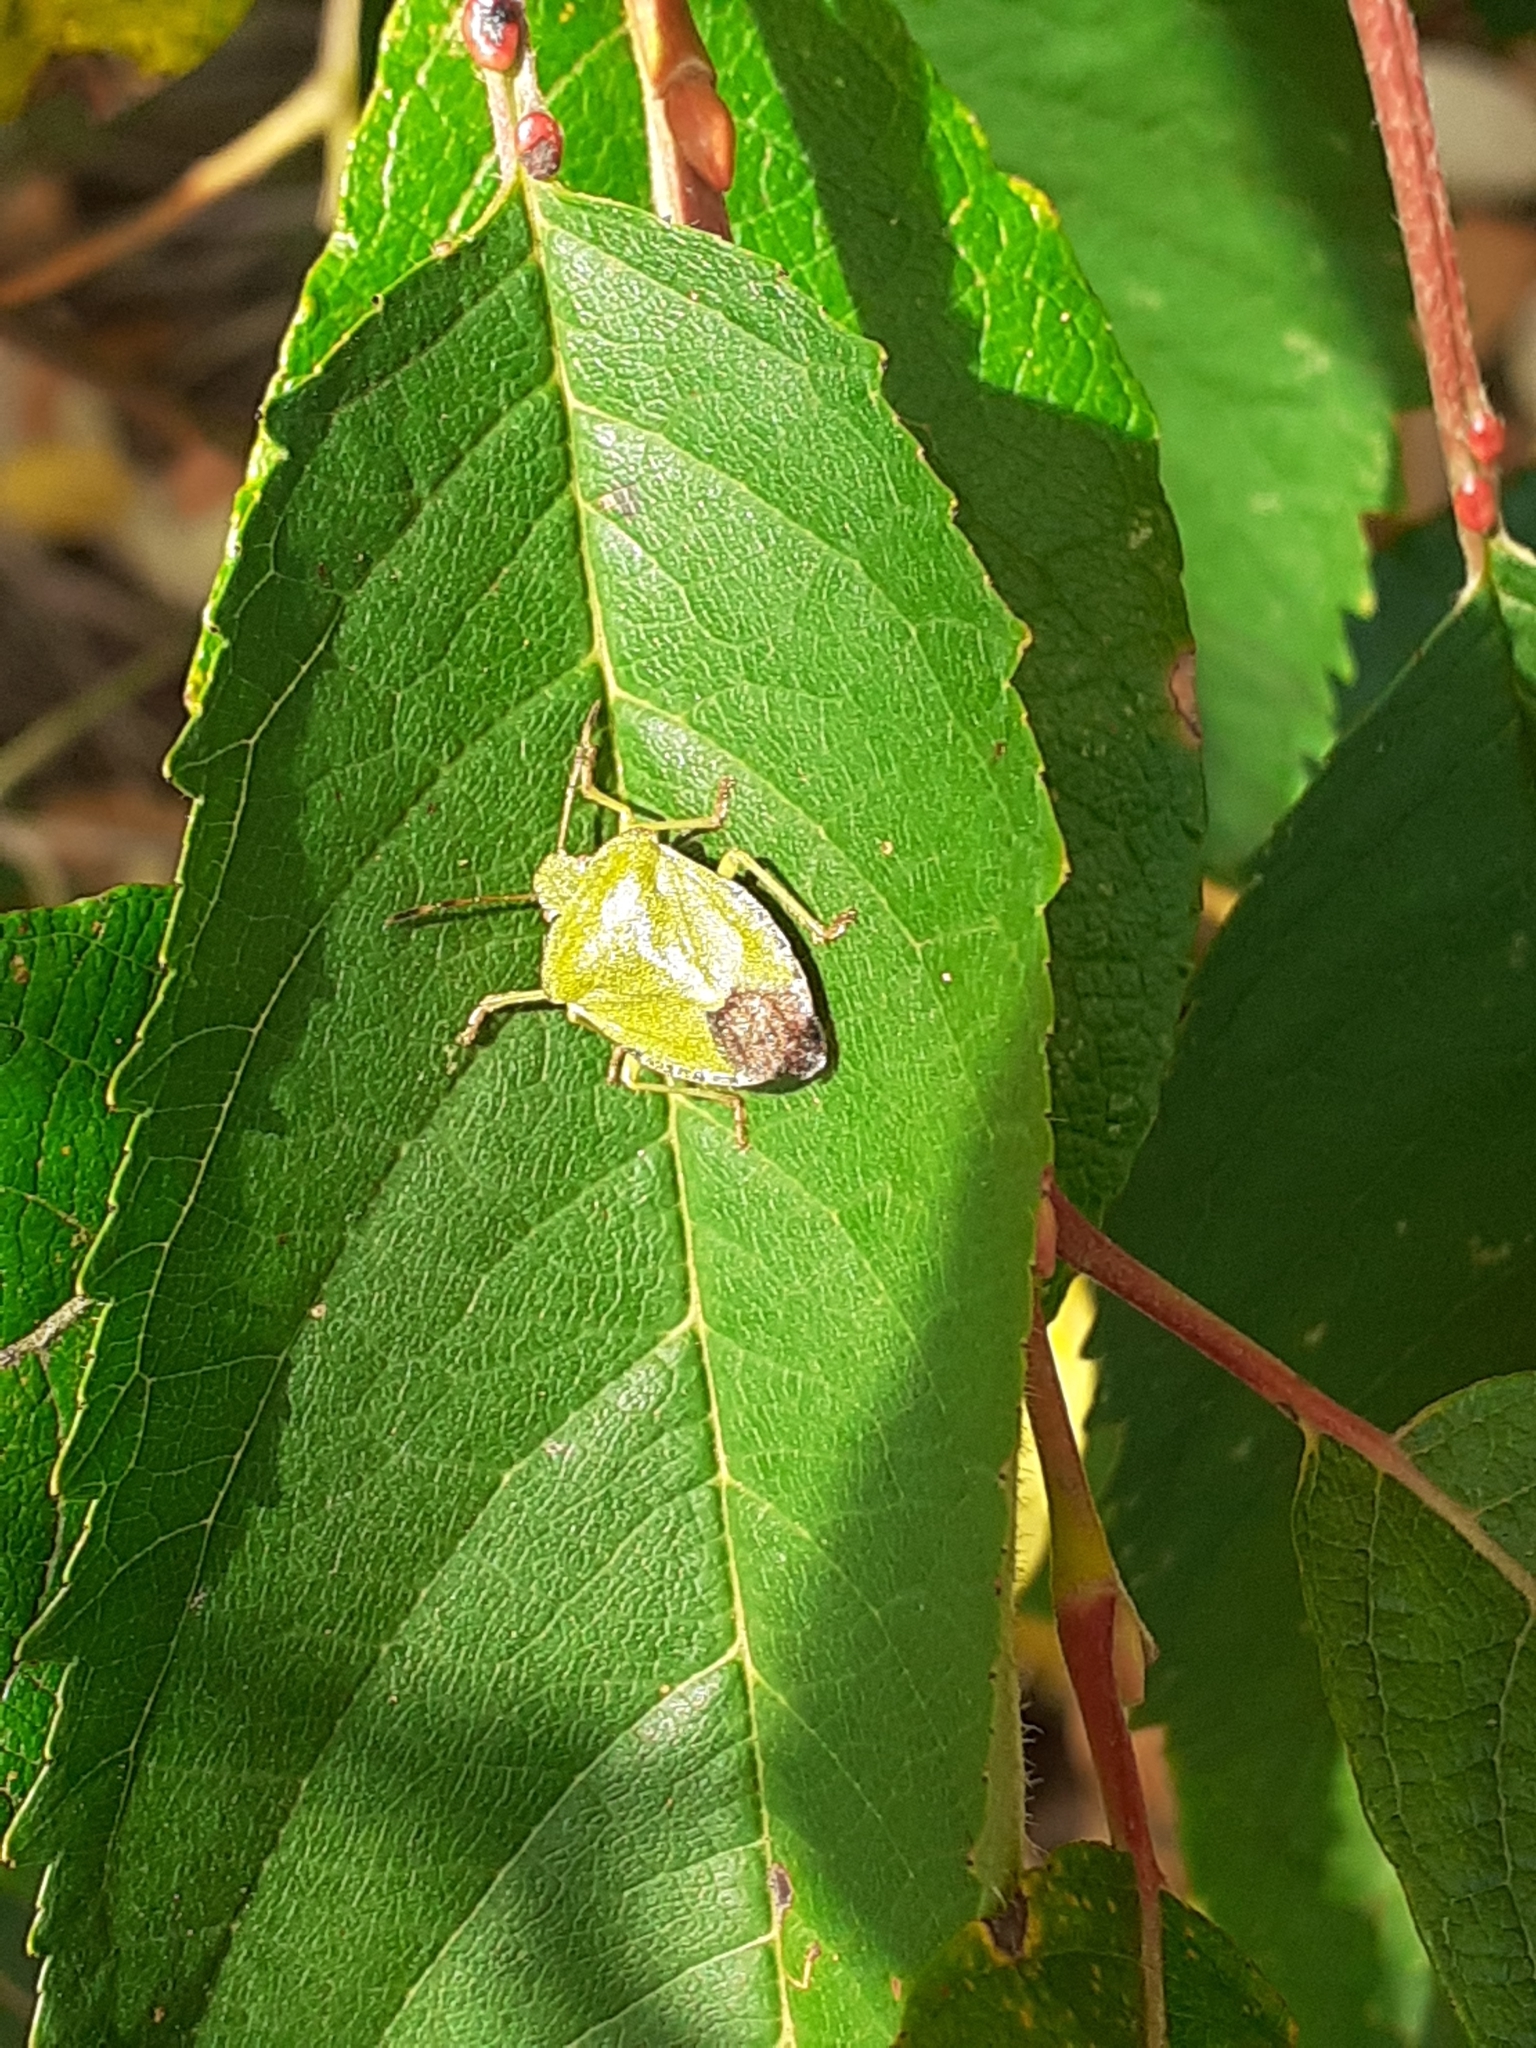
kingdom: Animalia
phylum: Arthropoda
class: Insecta
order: Hemiptera
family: Pentatomidae
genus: Palomena
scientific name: Palomena prasina
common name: Green shieldbug
